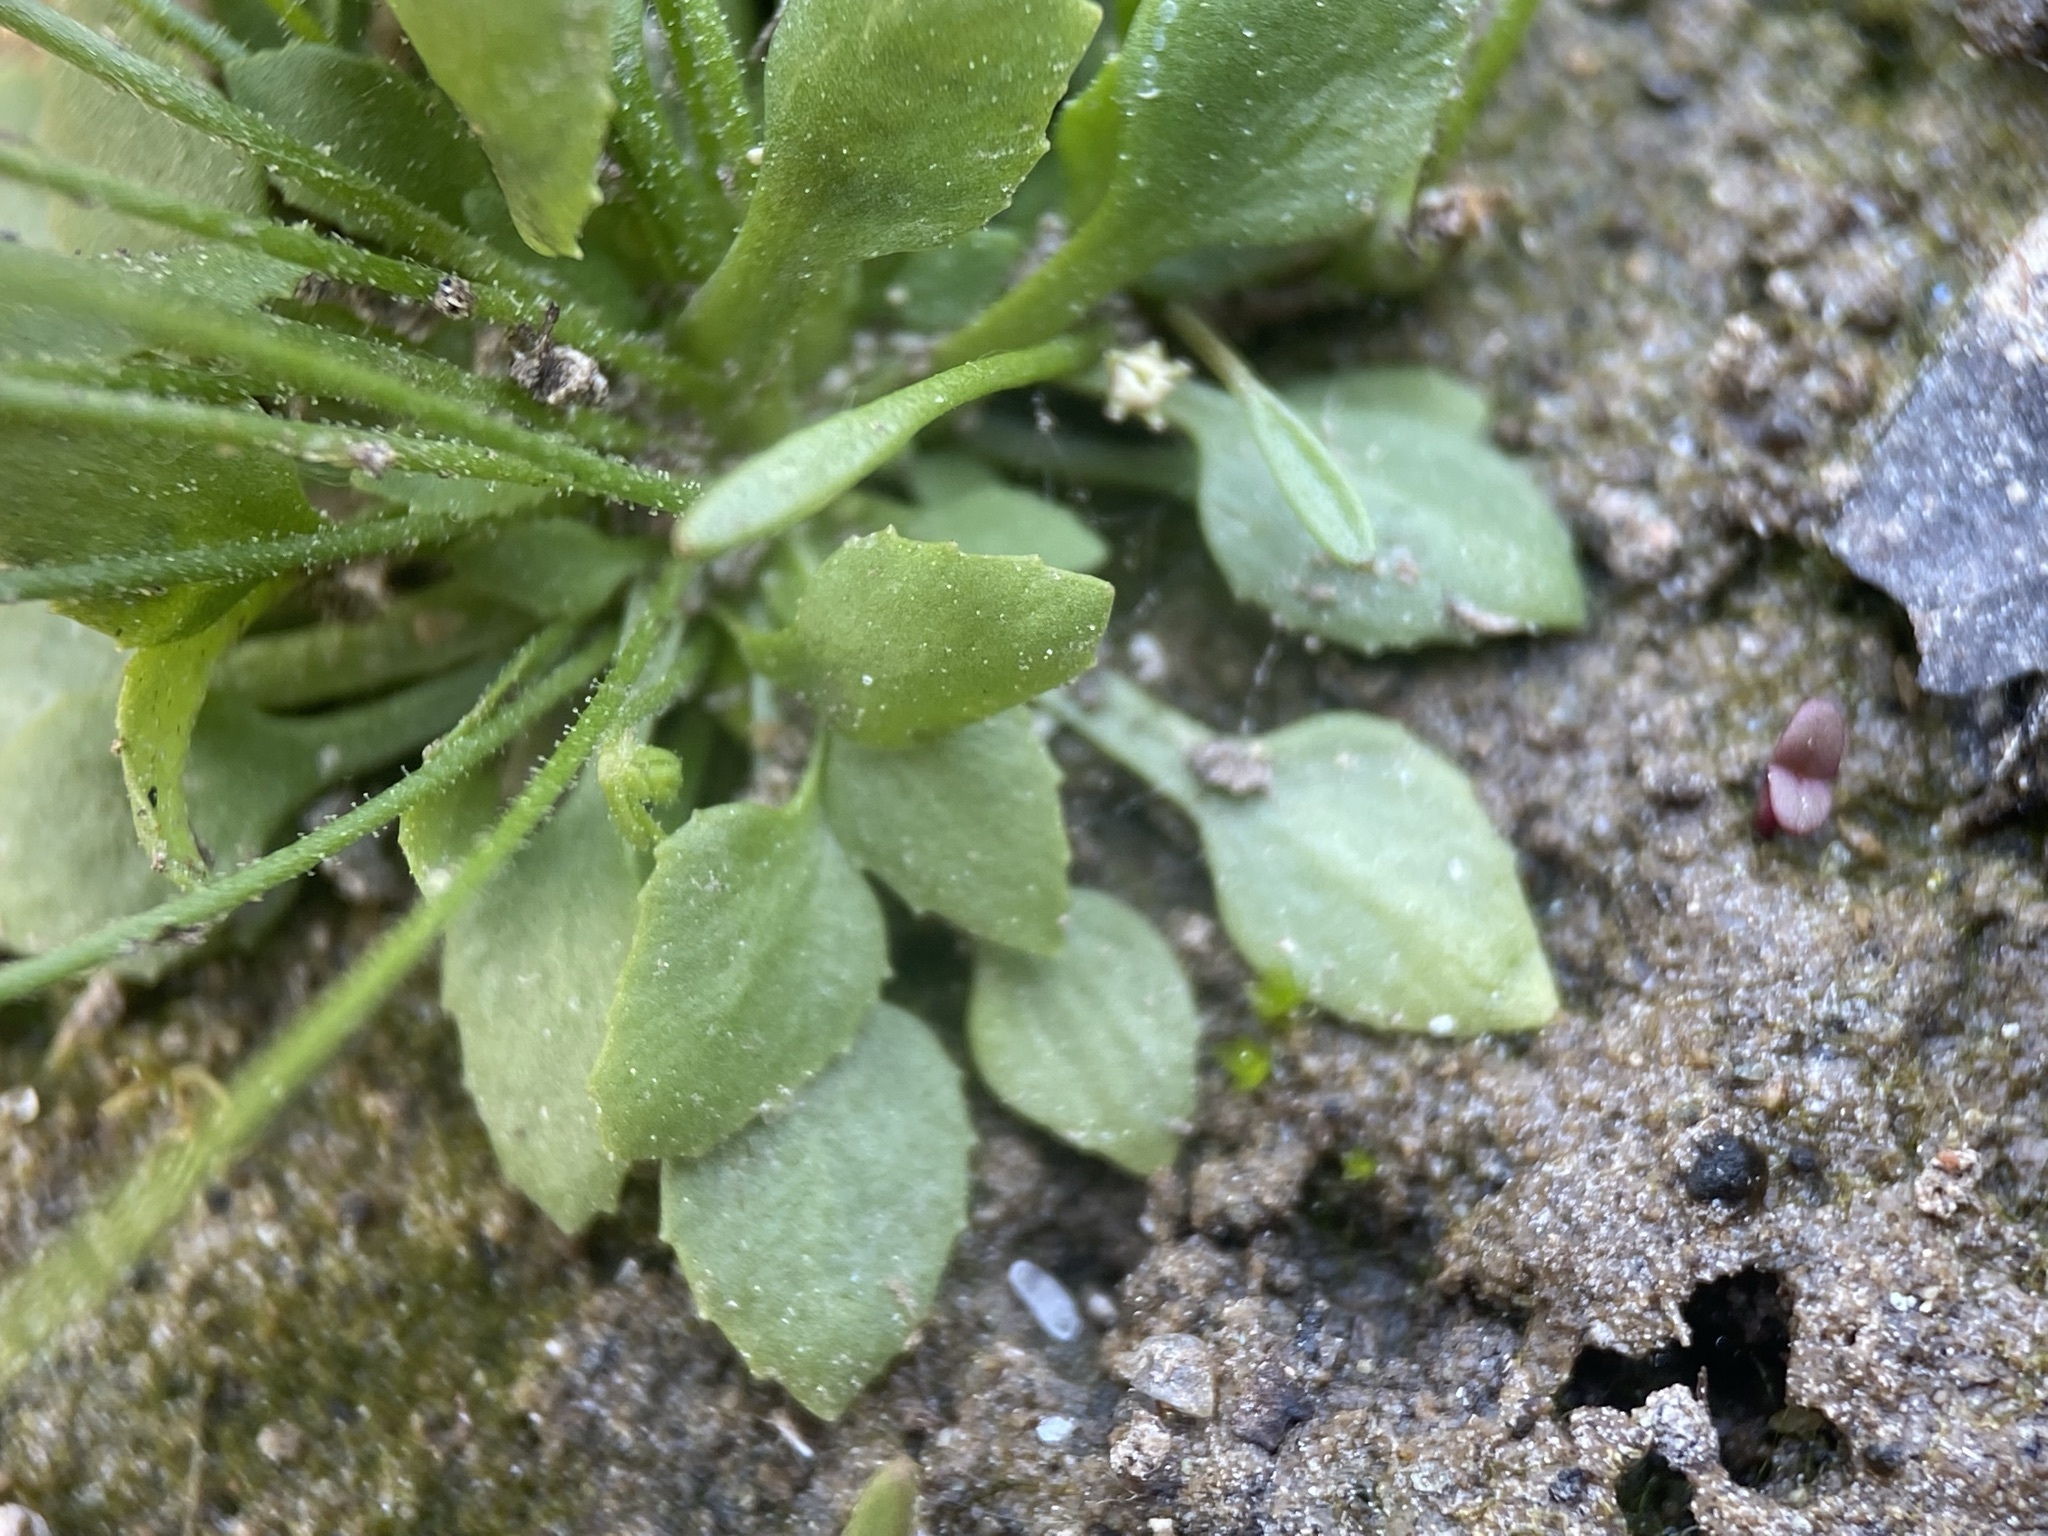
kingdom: Plantae
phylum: Tracheophyta
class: Magnoliopsida
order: Ericales
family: Primulaceae
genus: Androsace
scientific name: Androsace filiformis
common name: Filiform rock jasmine
